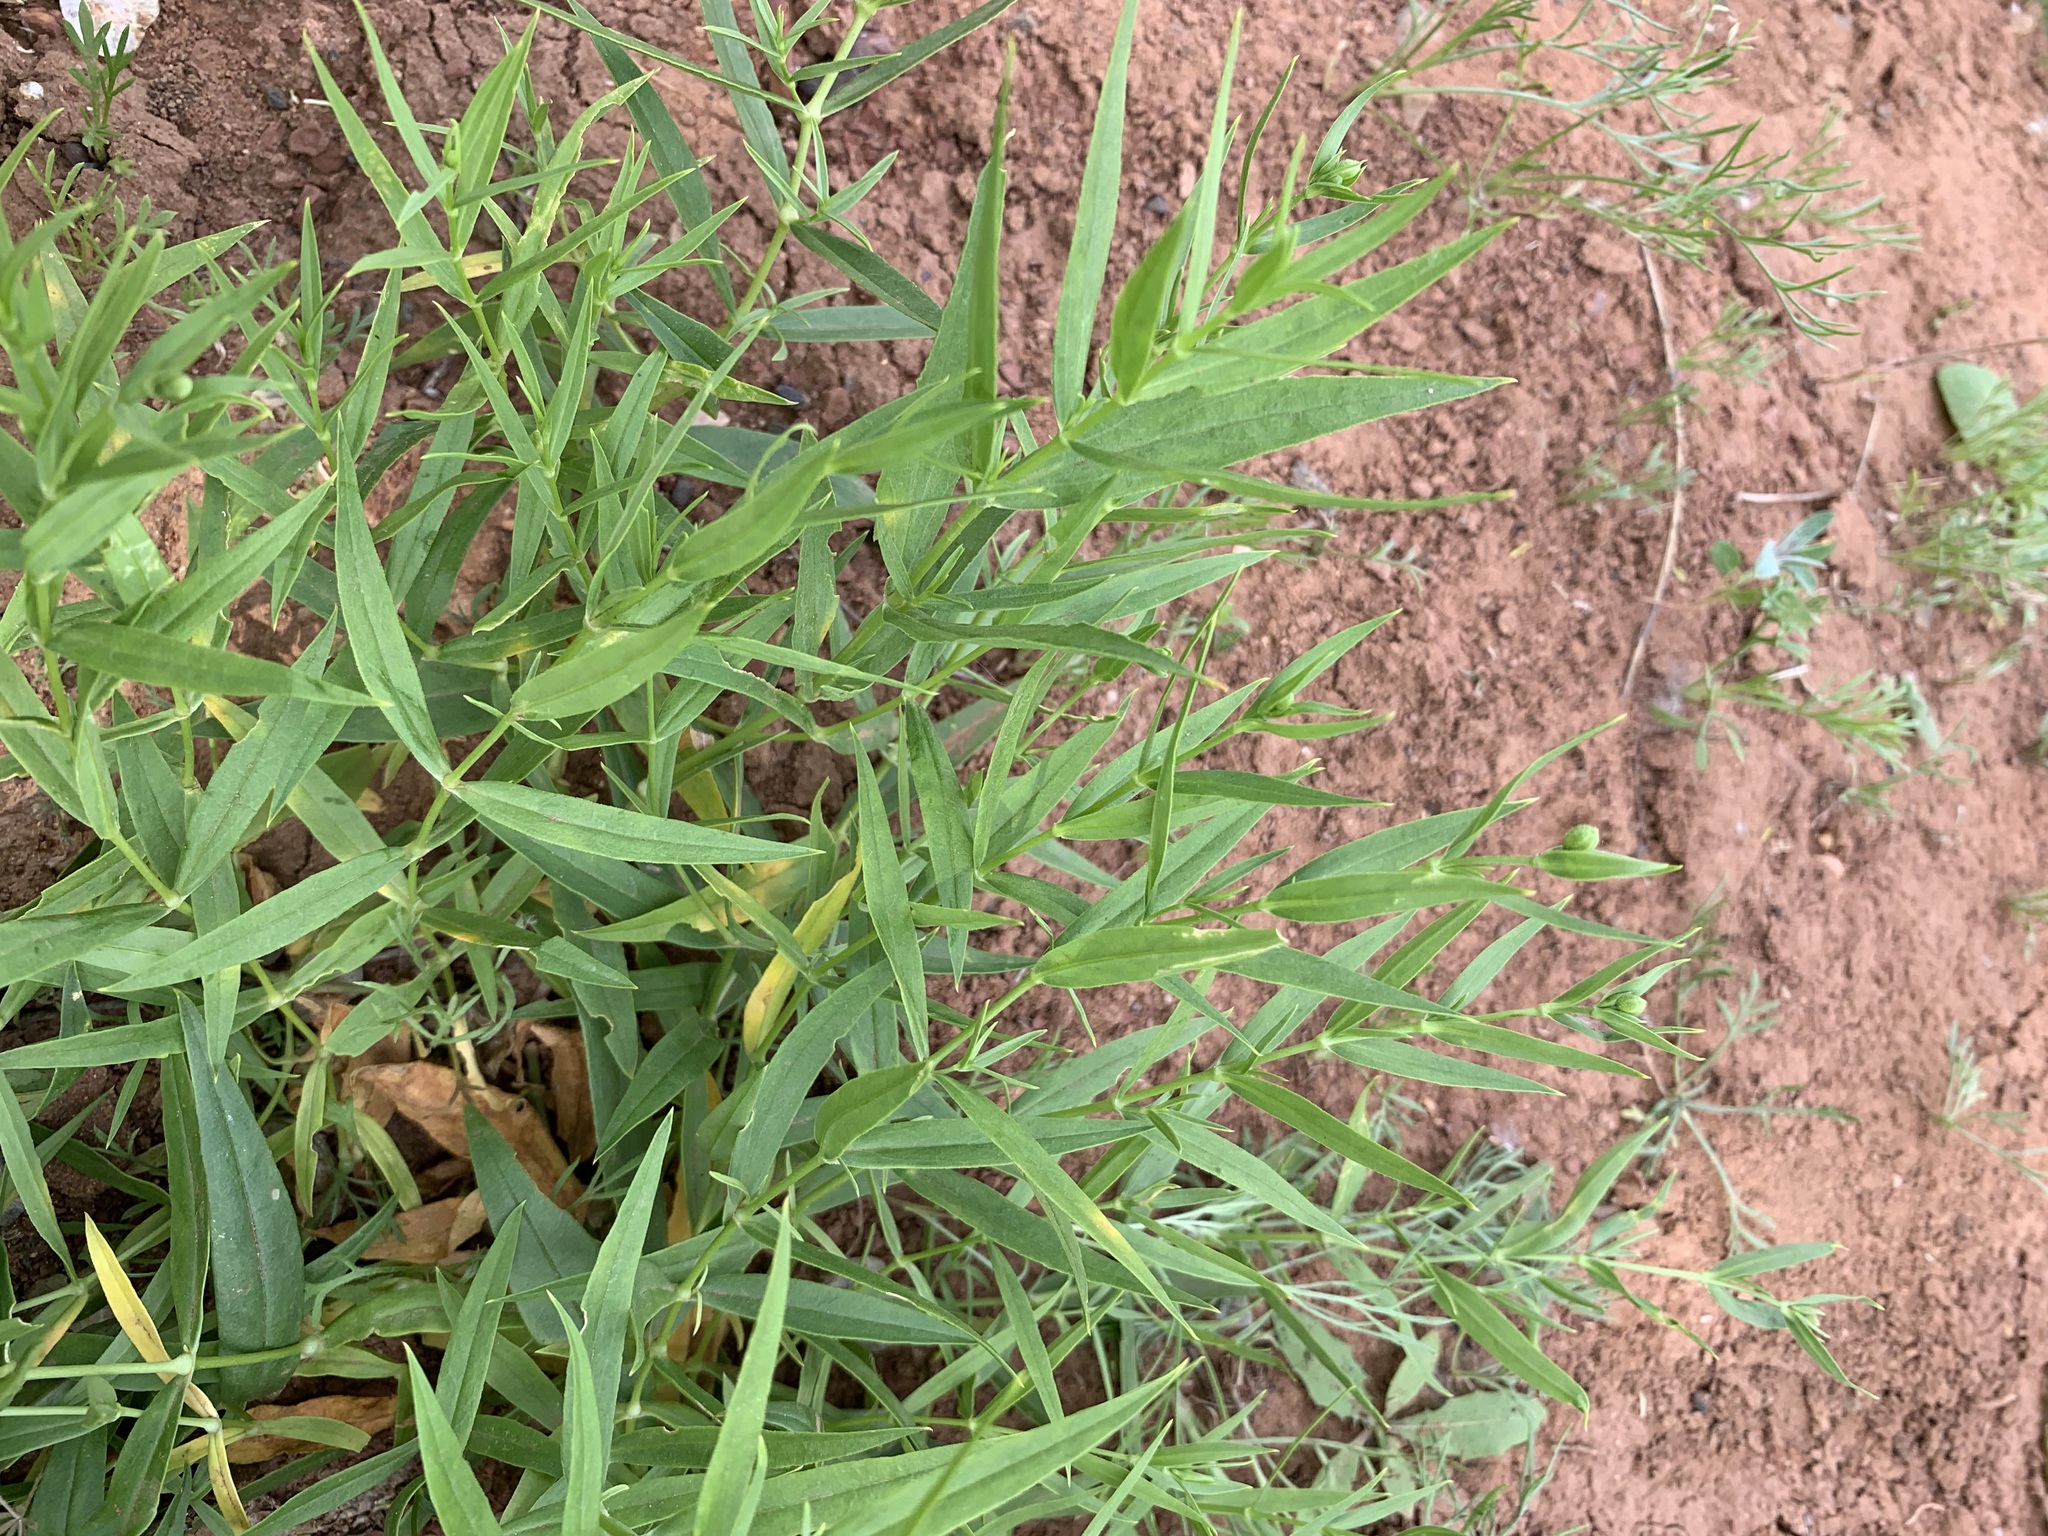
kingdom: Plantae
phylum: Tracheophyta
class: Magnoliopsida
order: Caryophyllales
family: Caryophyllaceae
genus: Silene
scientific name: Silene procumbens
